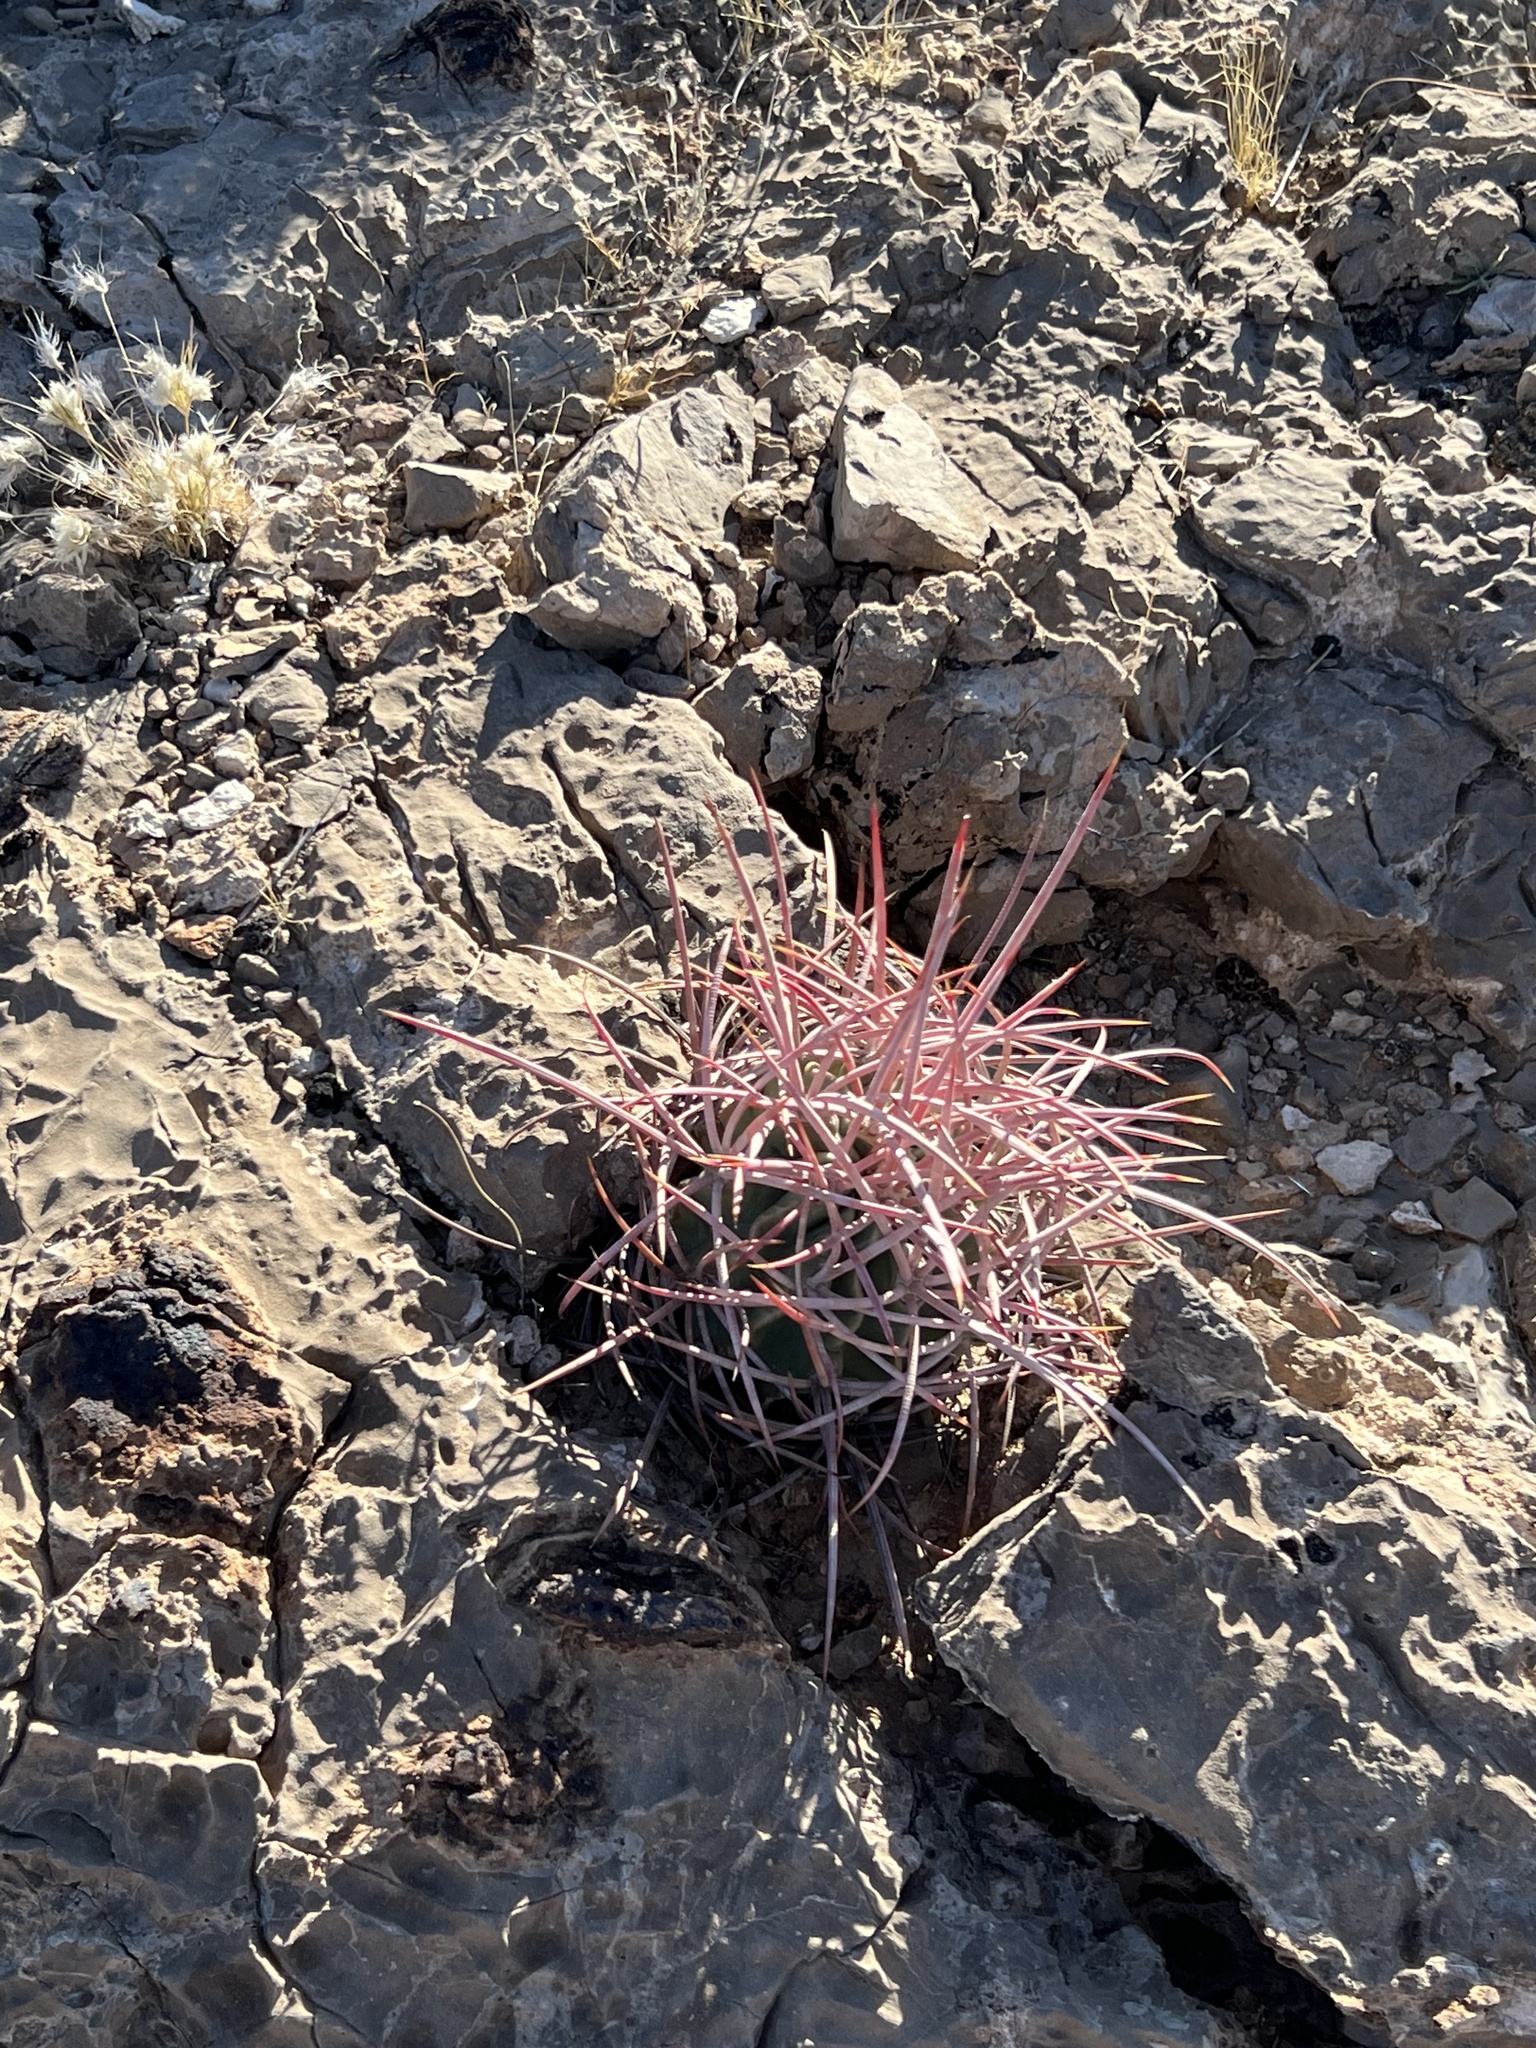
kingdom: Plantae
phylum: Tracheophyta
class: Magnoliopsida
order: Caryophyllales
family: Cactaceae
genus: Echinocactus
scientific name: Echinocactus polycephalus
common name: Cottontop cactus
